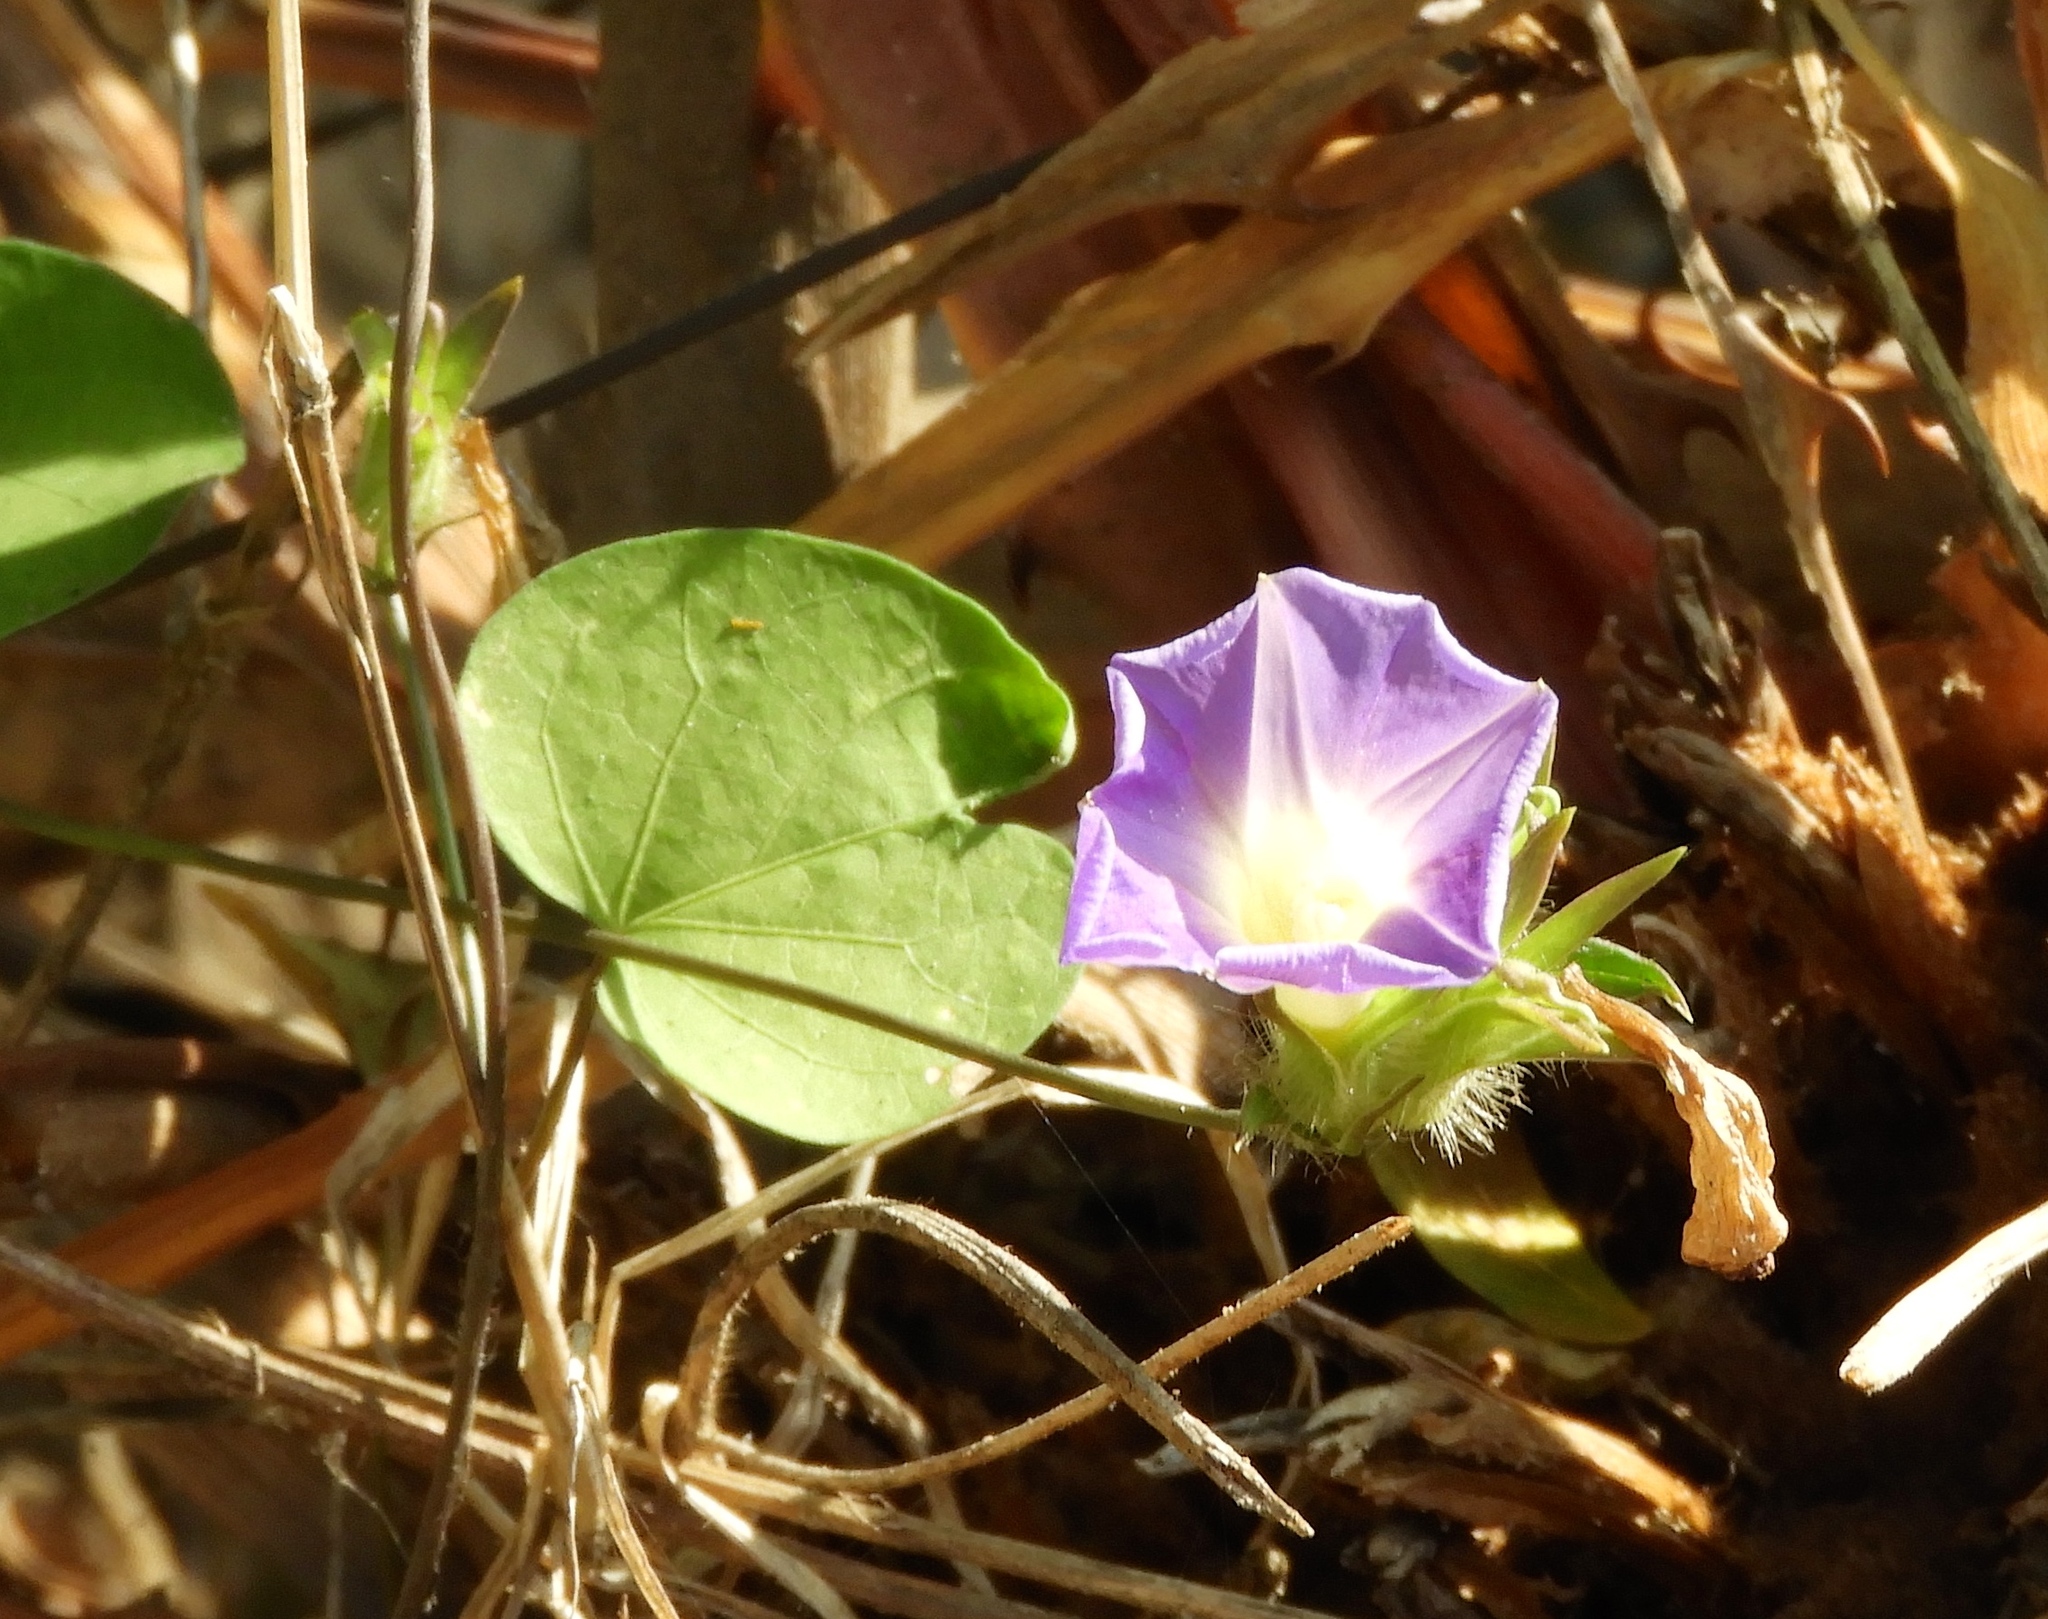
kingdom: Plantae
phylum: Tracheophyta
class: Magnoliopsida
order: Solanales
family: Convolvulaceae
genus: Ipomoea
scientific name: Ipomoea meyeri
